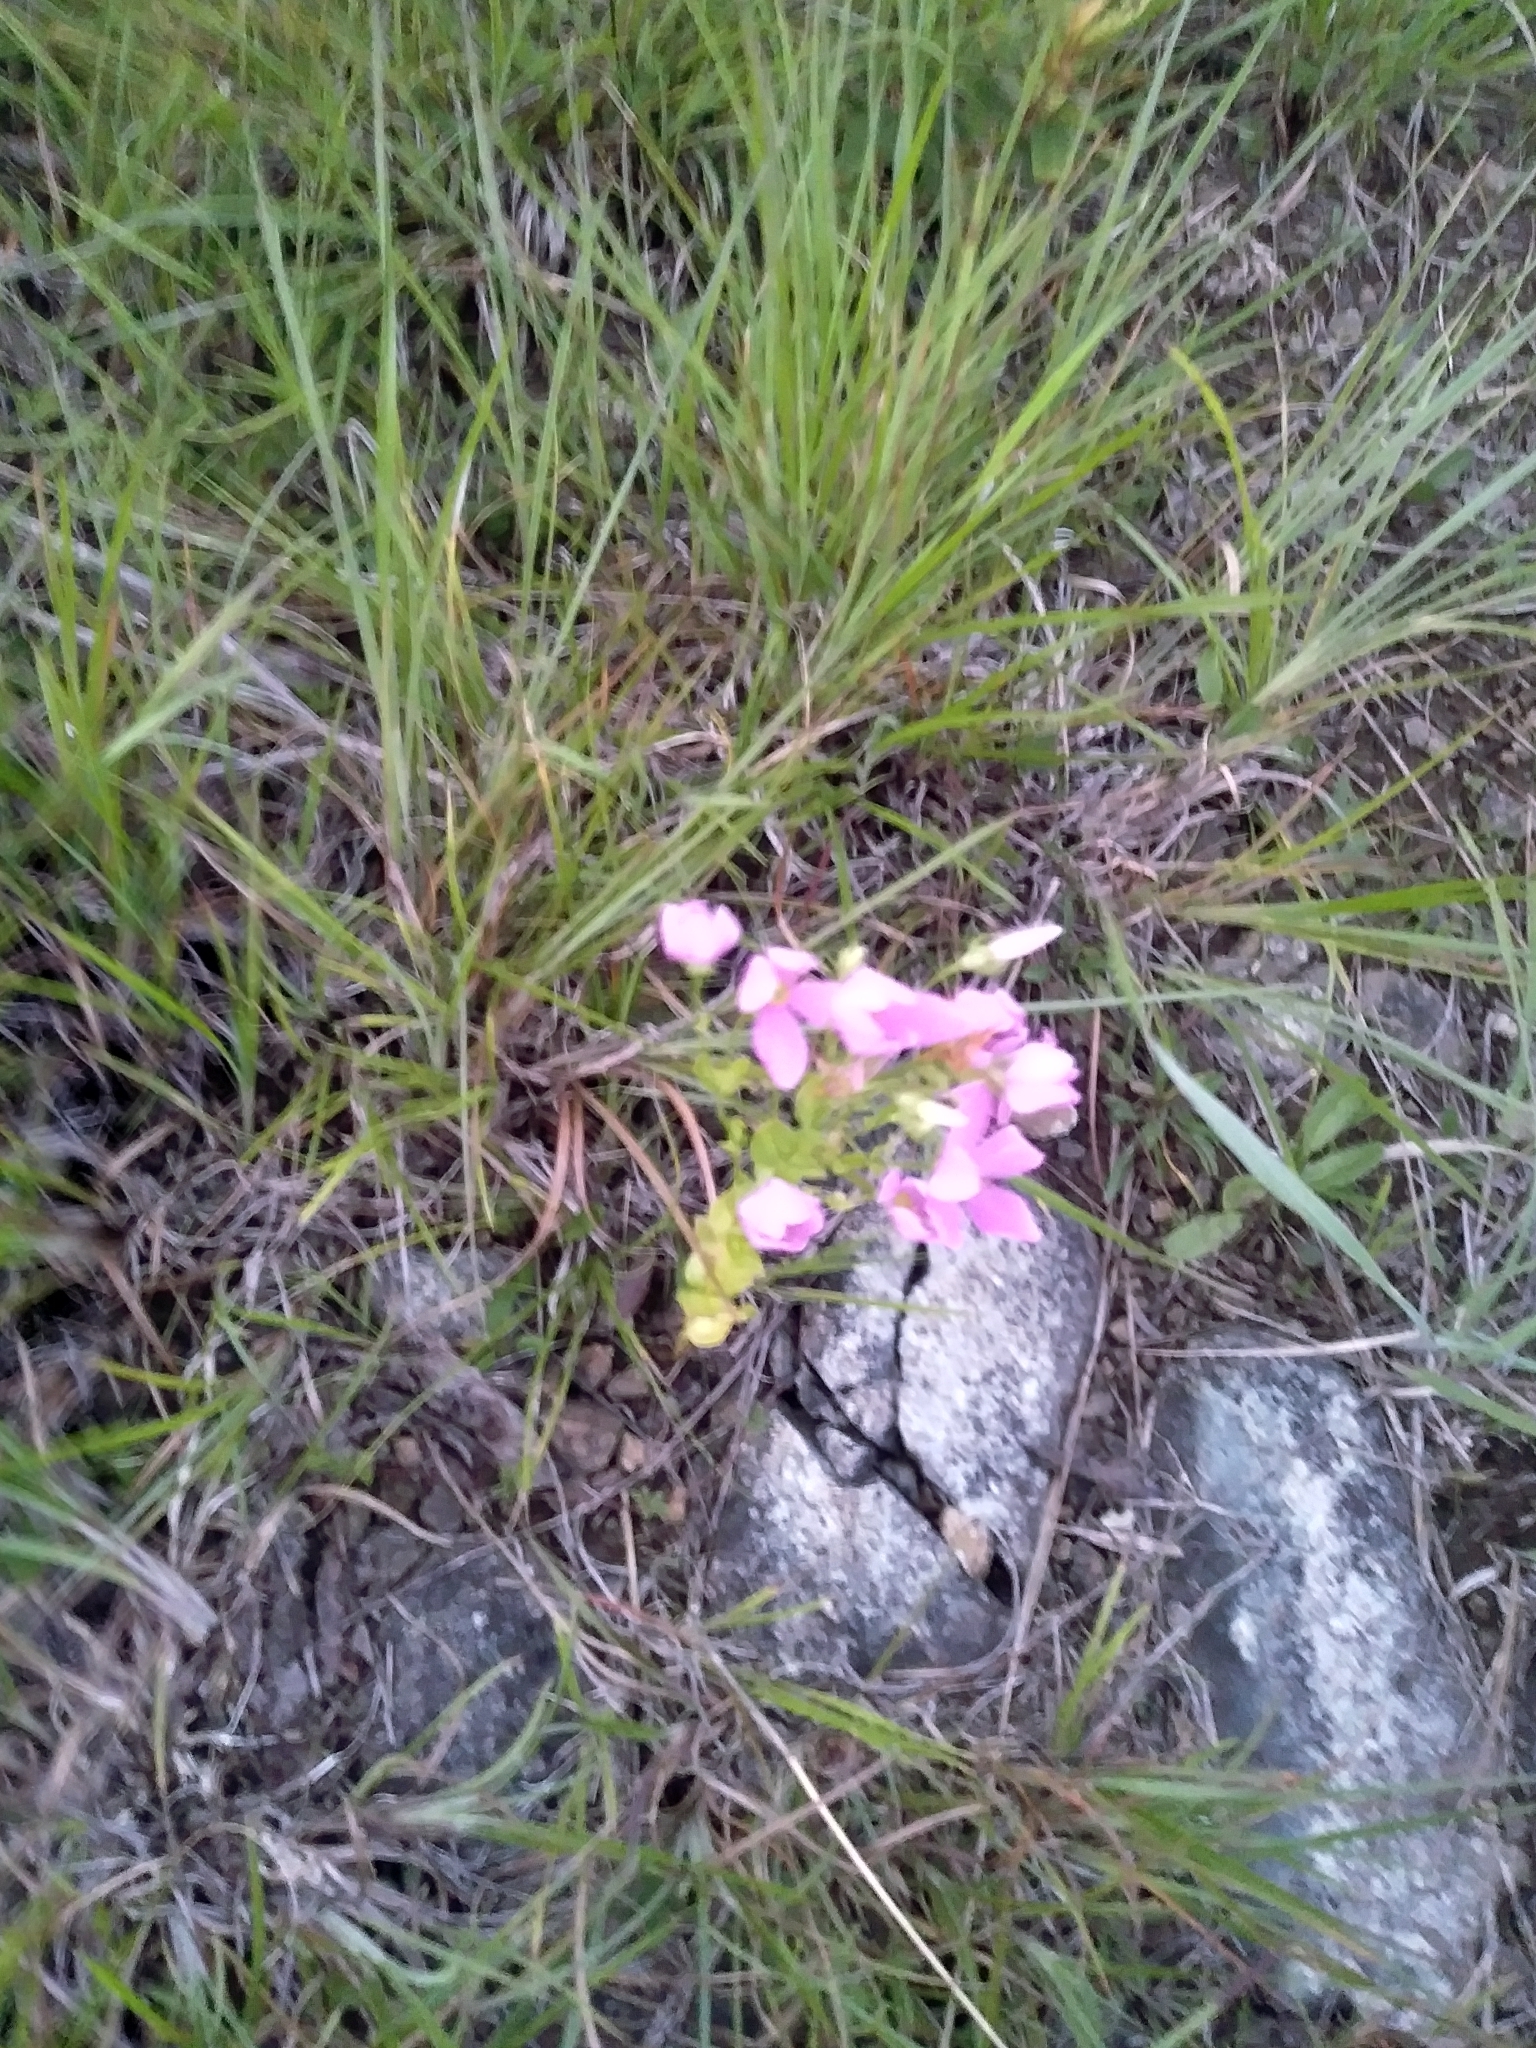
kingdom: Plantae
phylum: Tracheophyta
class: Magnoliopsida
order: Gentianales
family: Gentianaceae
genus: Sabatia
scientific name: Sabatia angularis
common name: Rose-pink
